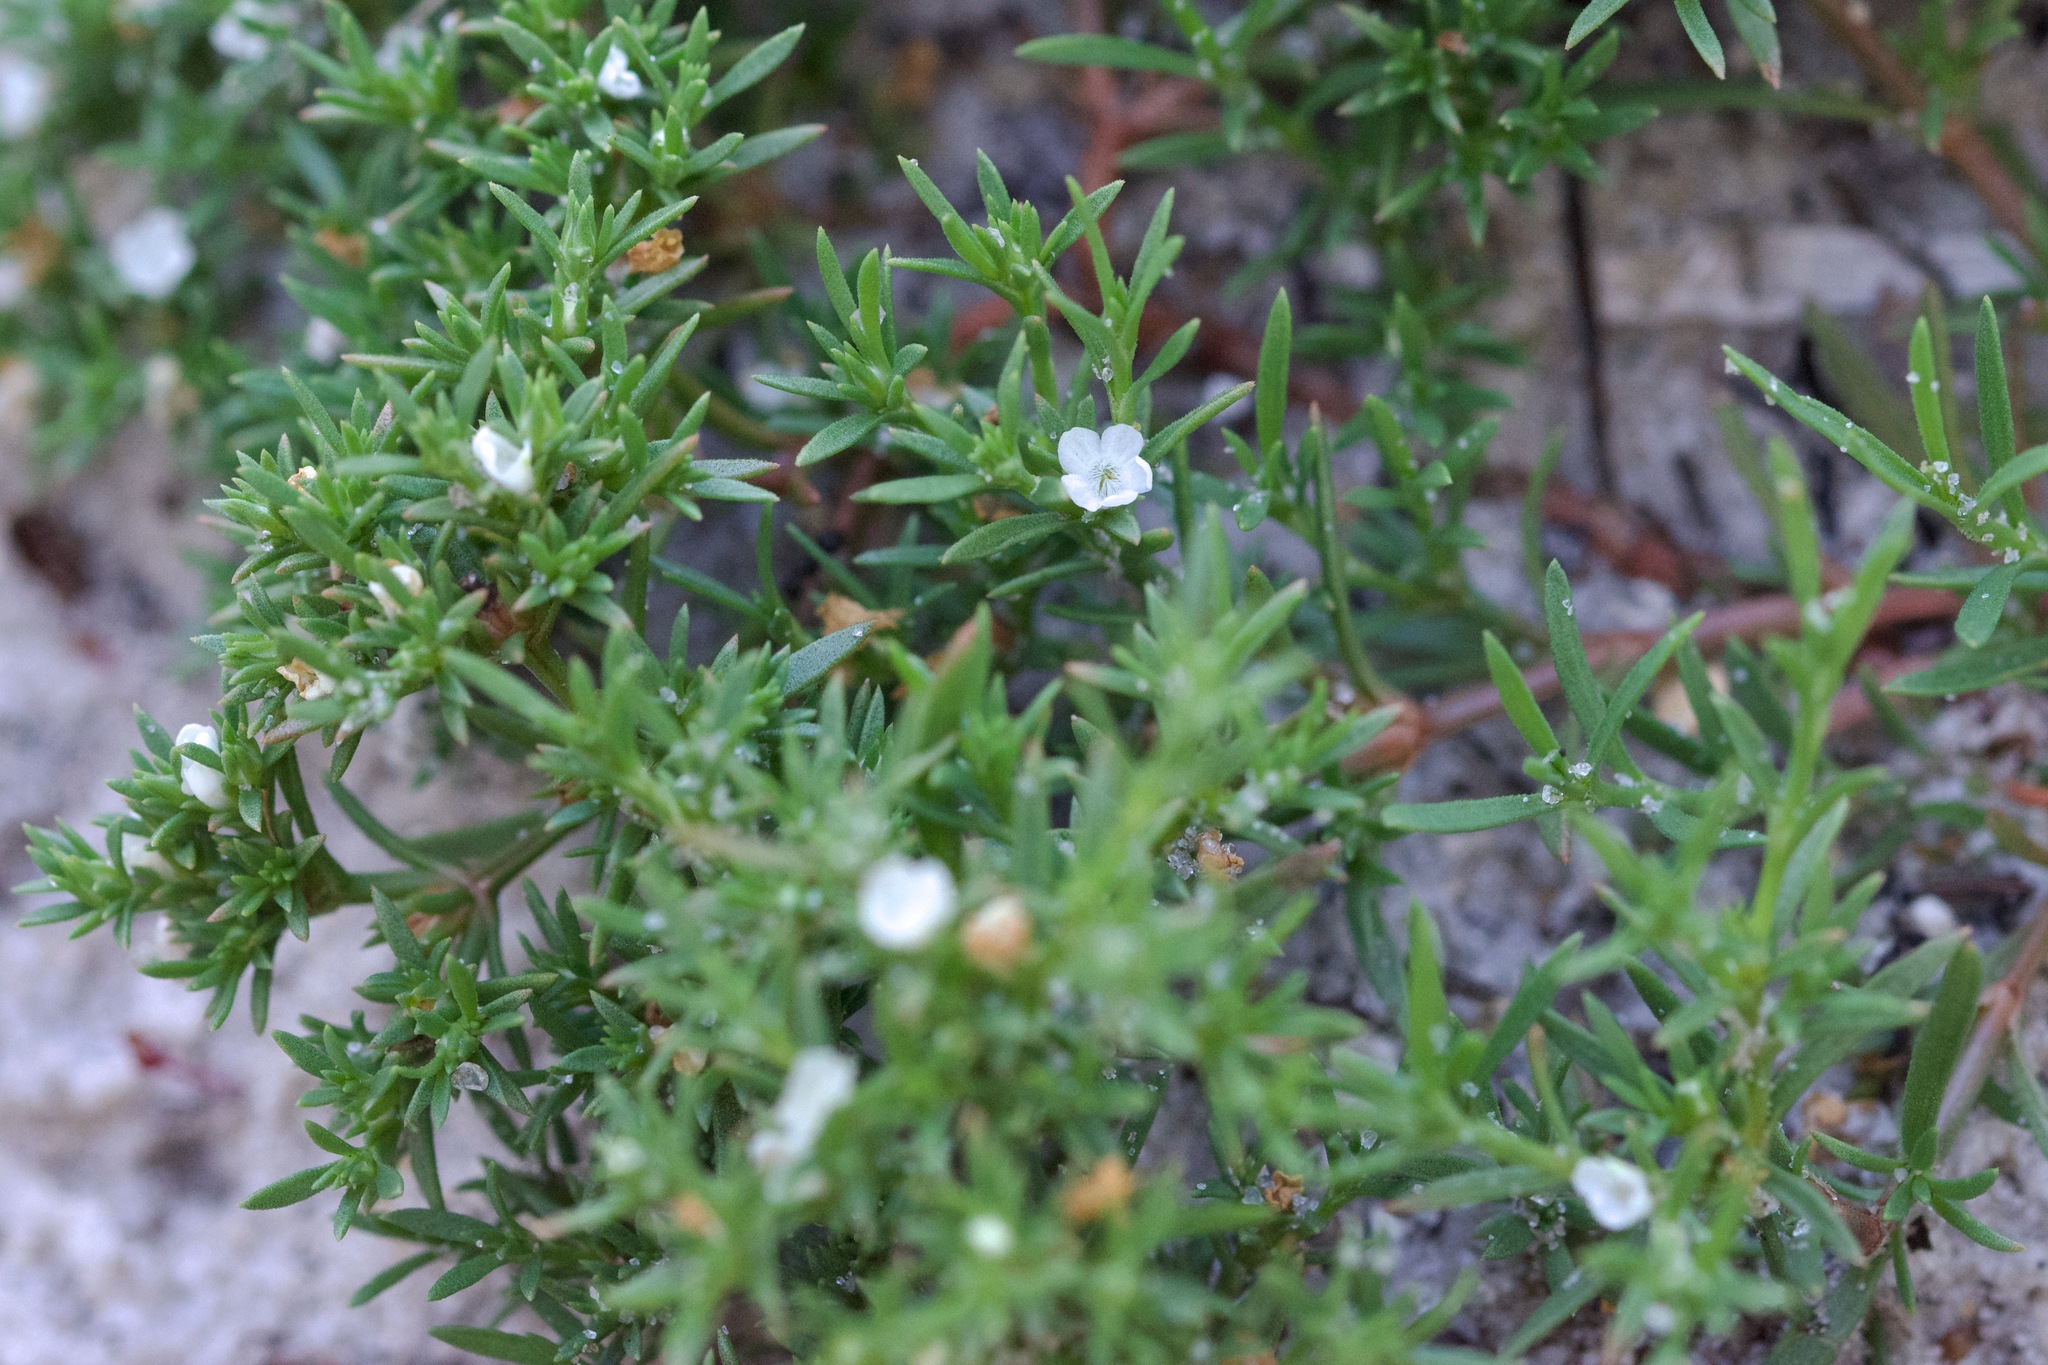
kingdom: Plantae
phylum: Tracheophyta
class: Magnoliopsida
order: Lamiales
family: Tetrachondraceae
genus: Polypremum
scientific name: Polypremum procumbens
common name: Juniper-leaf
